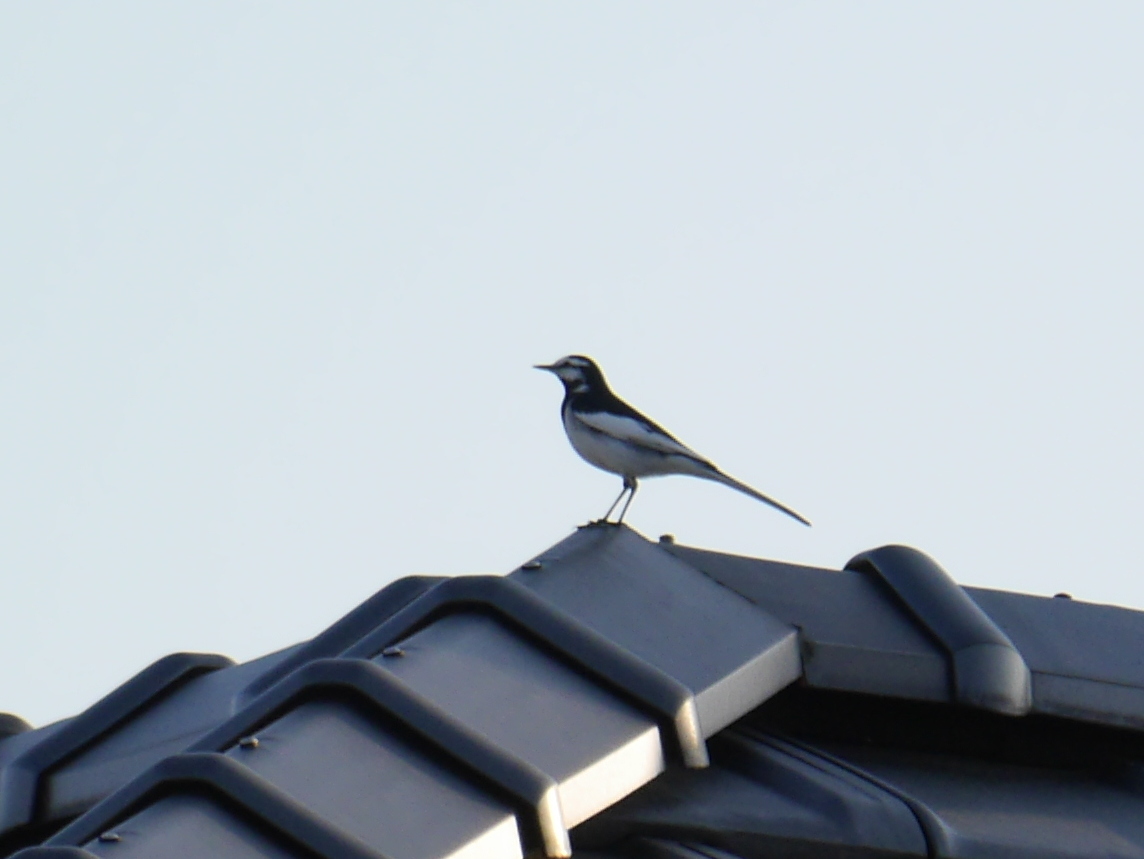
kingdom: Animalia
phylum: Chordata
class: Aves
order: Passeriformes
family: Motacillidae
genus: Motacilla
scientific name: Motacilla alba
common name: White wagtail
